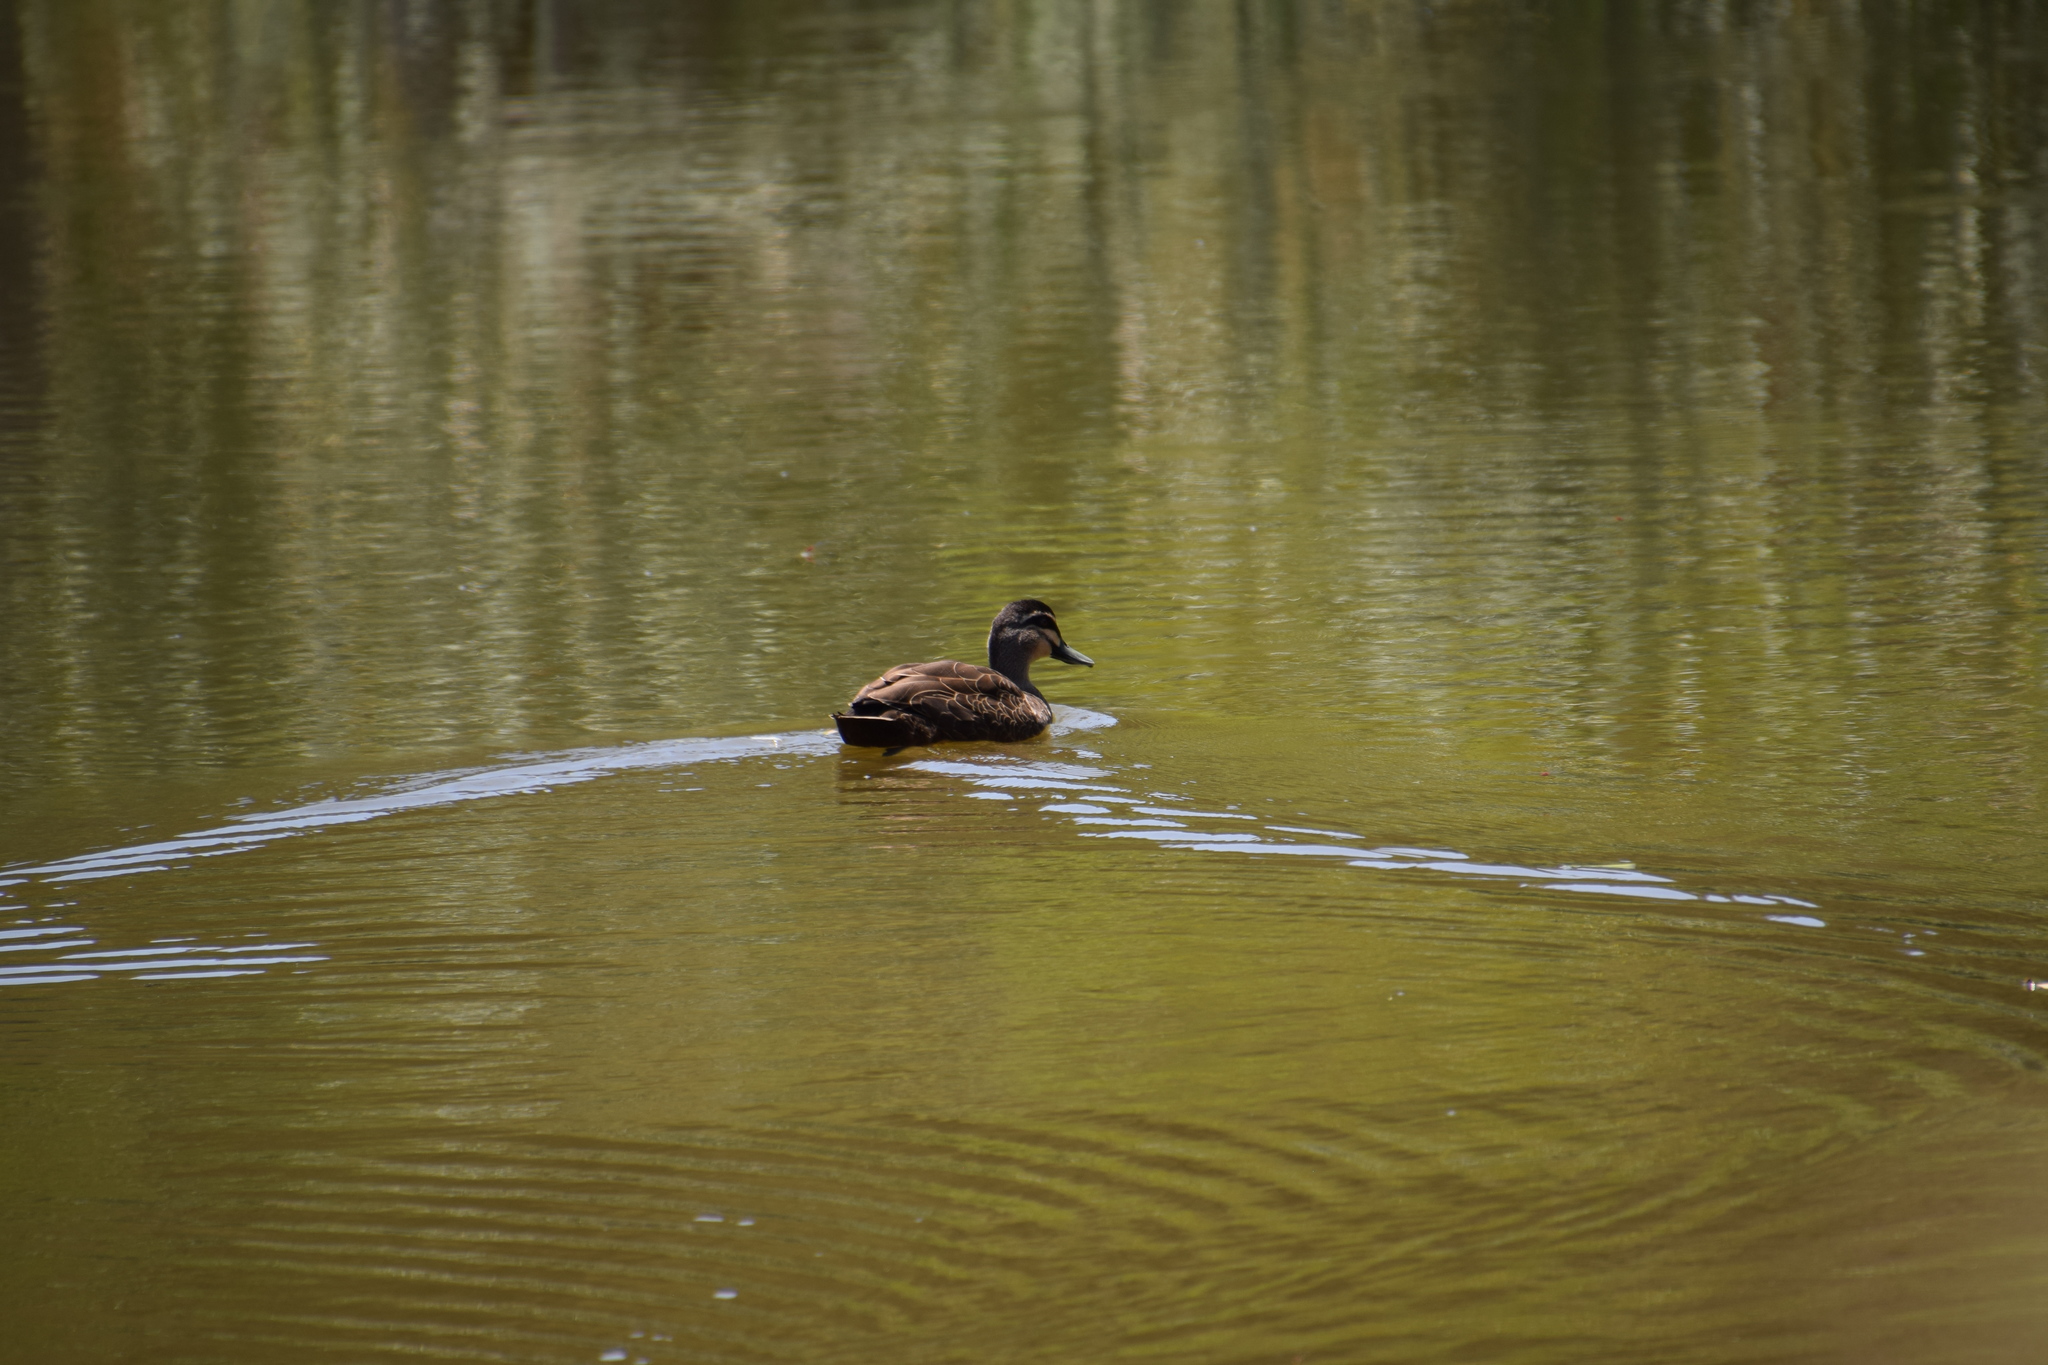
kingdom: Animalia
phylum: Chordata
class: Aves
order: Anseriformes
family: Anatidae
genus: Anas
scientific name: Anas superciliosa
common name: Pacific black duck
